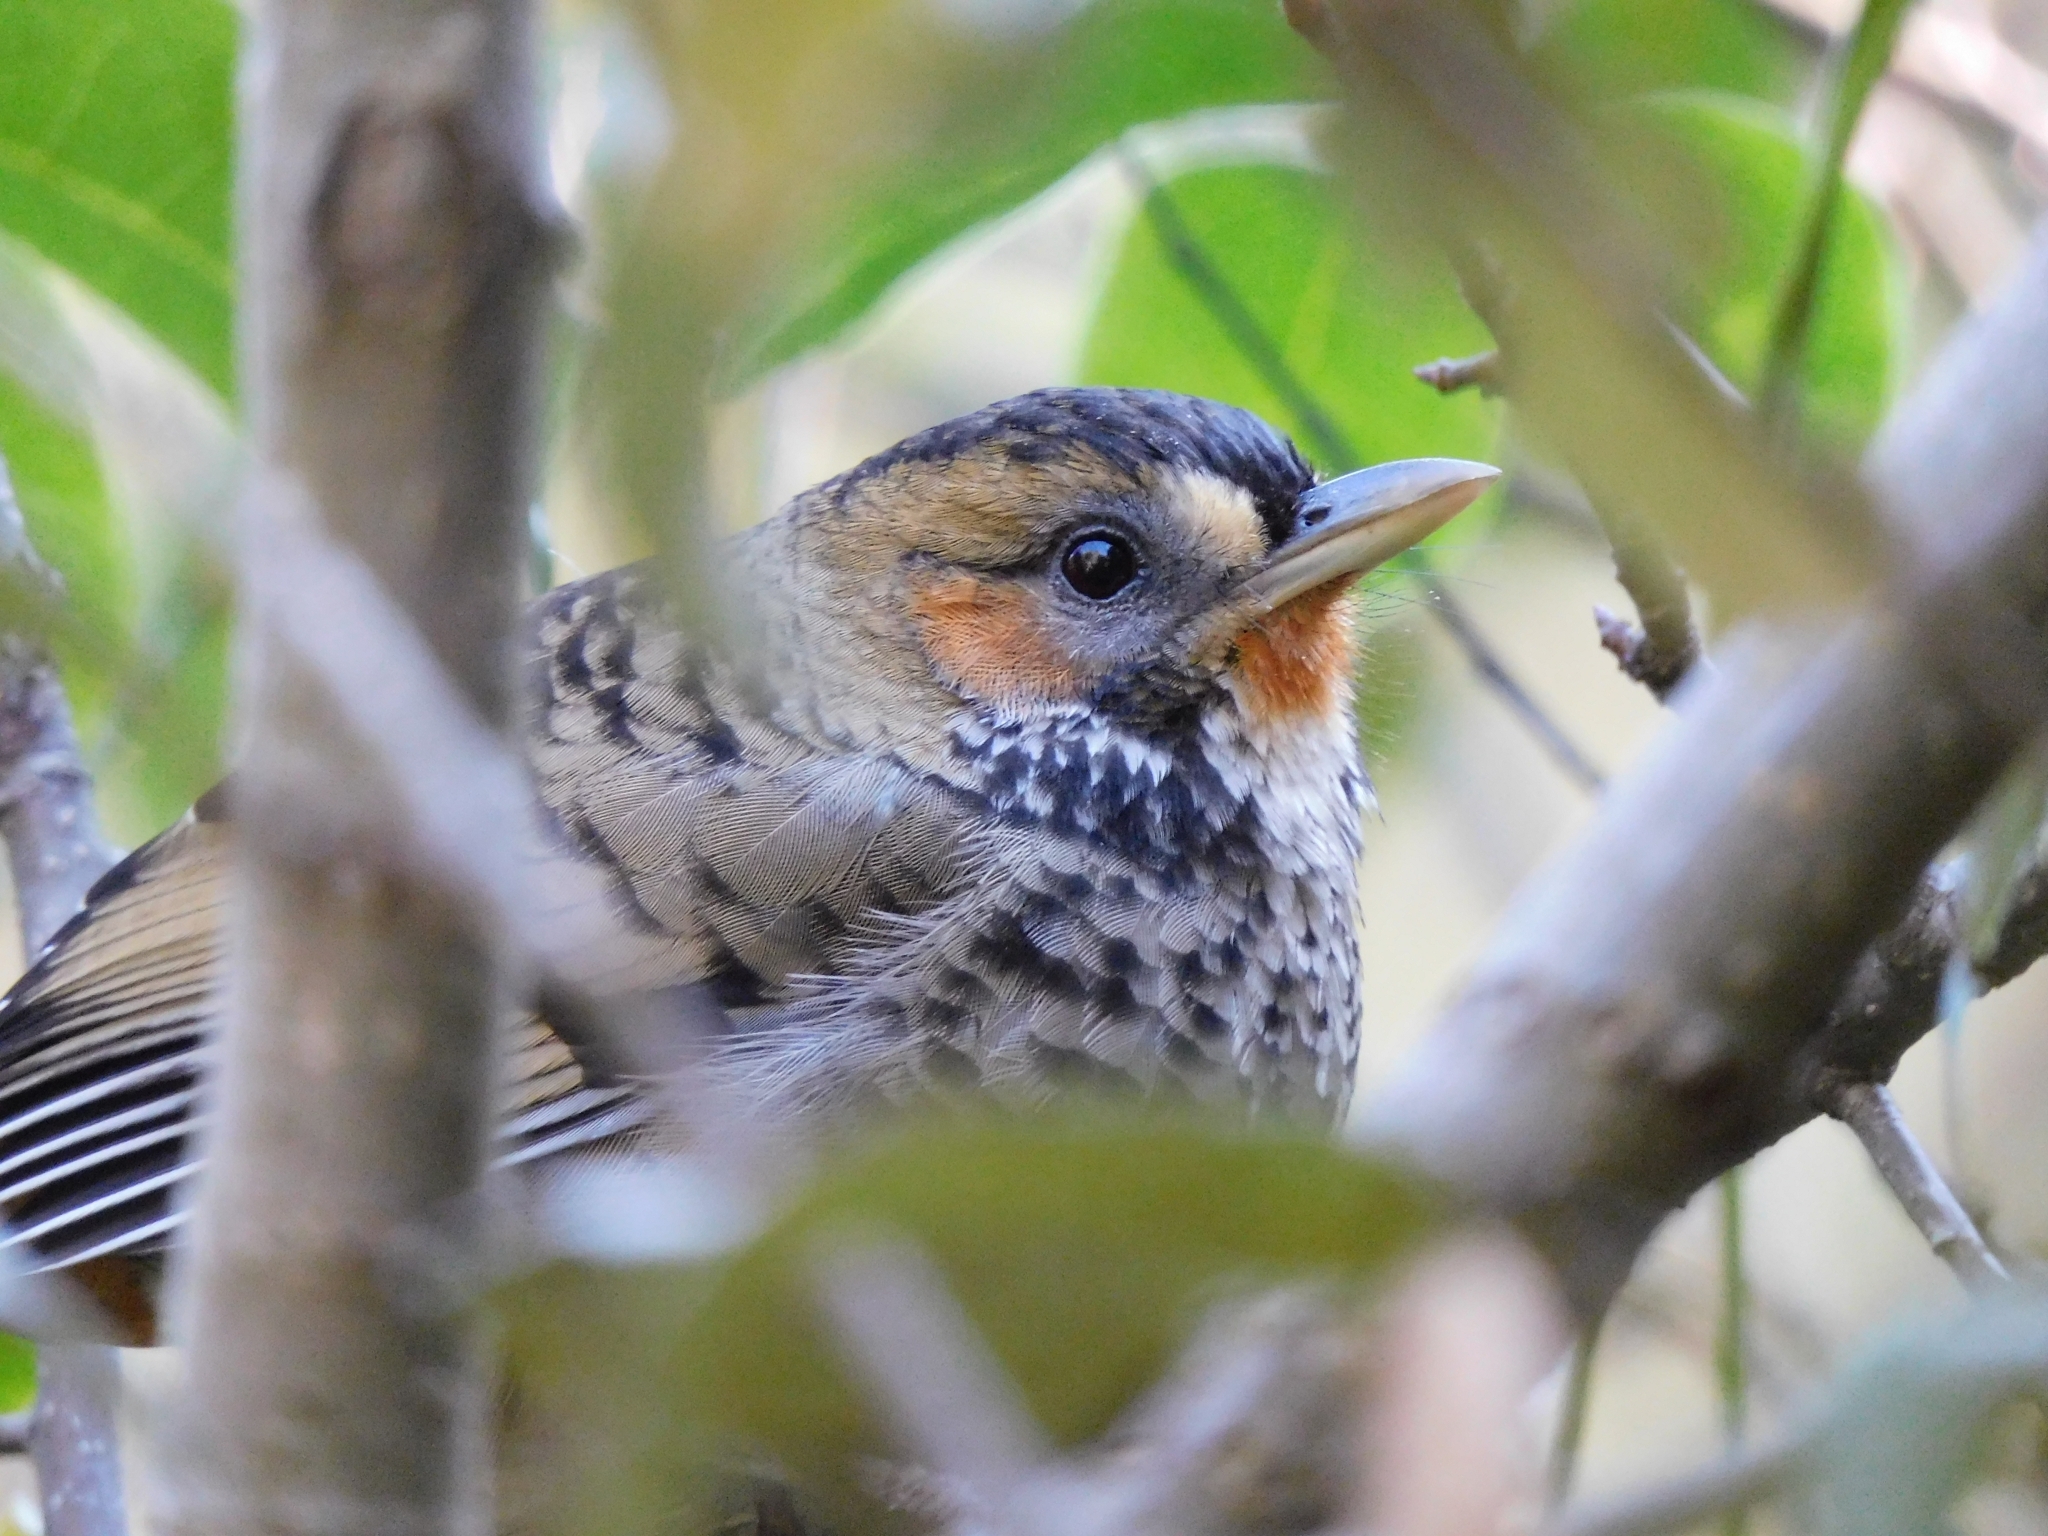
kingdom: Animalia
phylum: Chordata
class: Aves
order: Passeriformes
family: Leiothrichidae
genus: Garrulax
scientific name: Garrulax rufogularis
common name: Rufous-chinned laughingthrush
